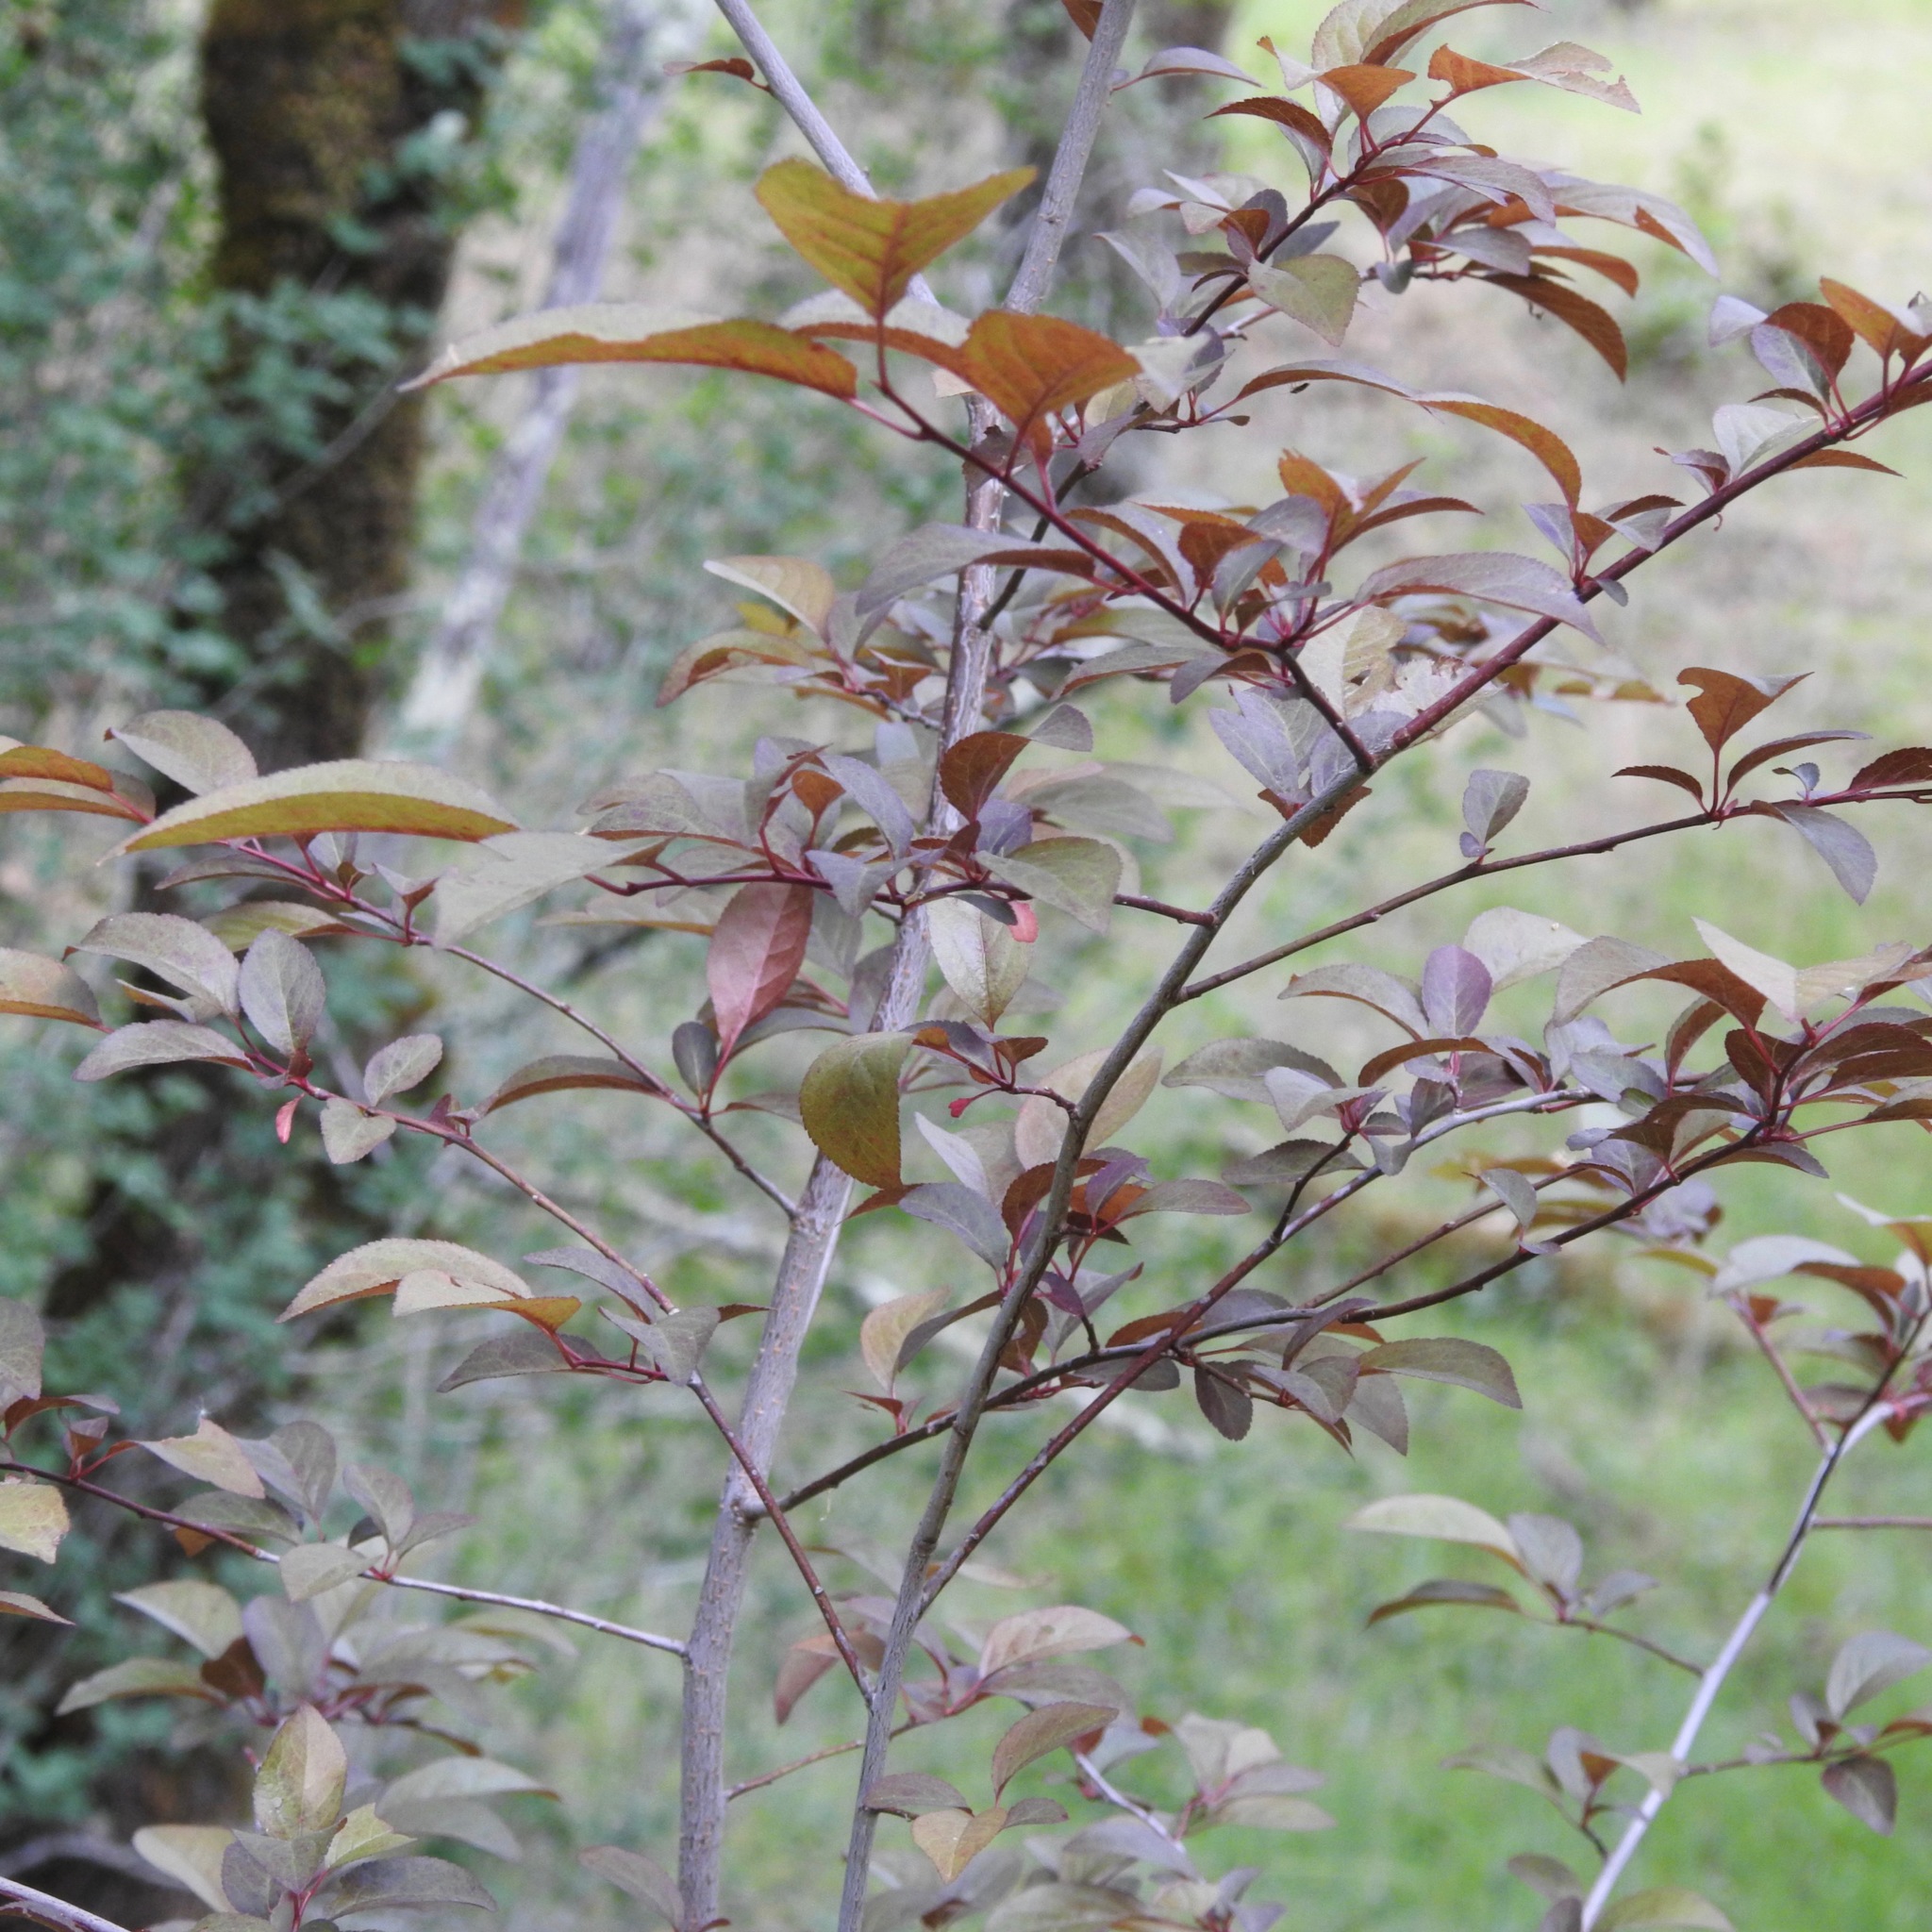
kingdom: Plantae
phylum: Tracheophyta
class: Magnoliopsida
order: Rosales
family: Rosaceae
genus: Prunus
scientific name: Prunus cerasifera
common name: Cherry plum
